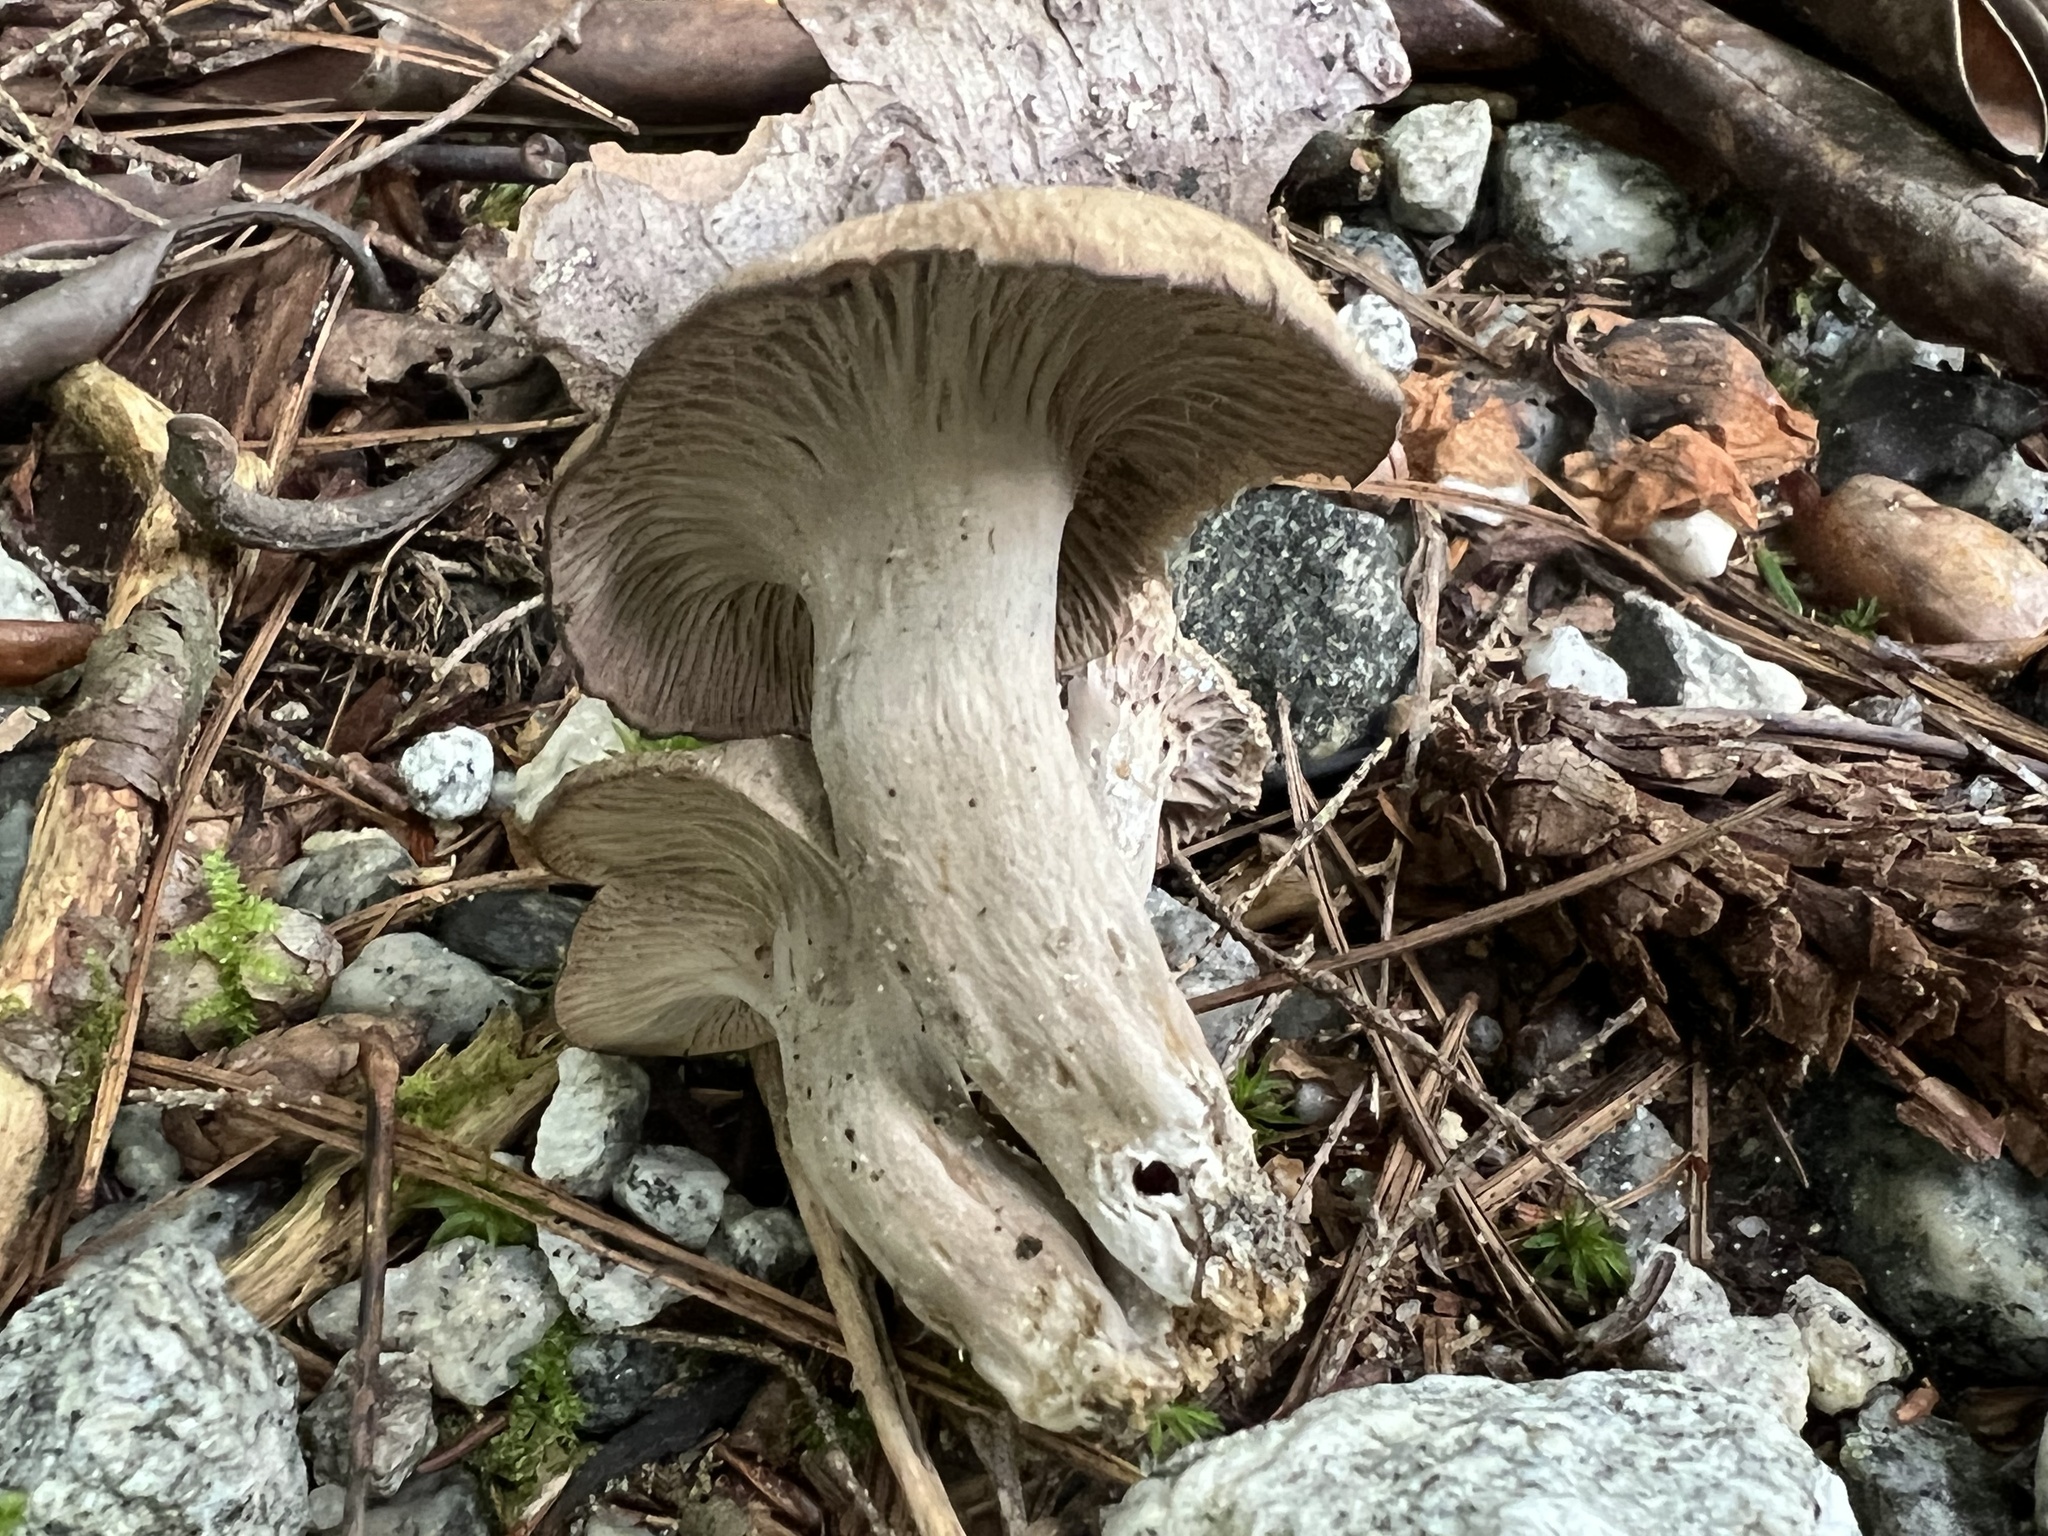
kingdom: Fungi
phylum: Basidiomycota
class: Agaricomycetes
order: Cantharellales
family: Hydnaceae
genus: Craterellus
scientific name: Craterellus foetidus
